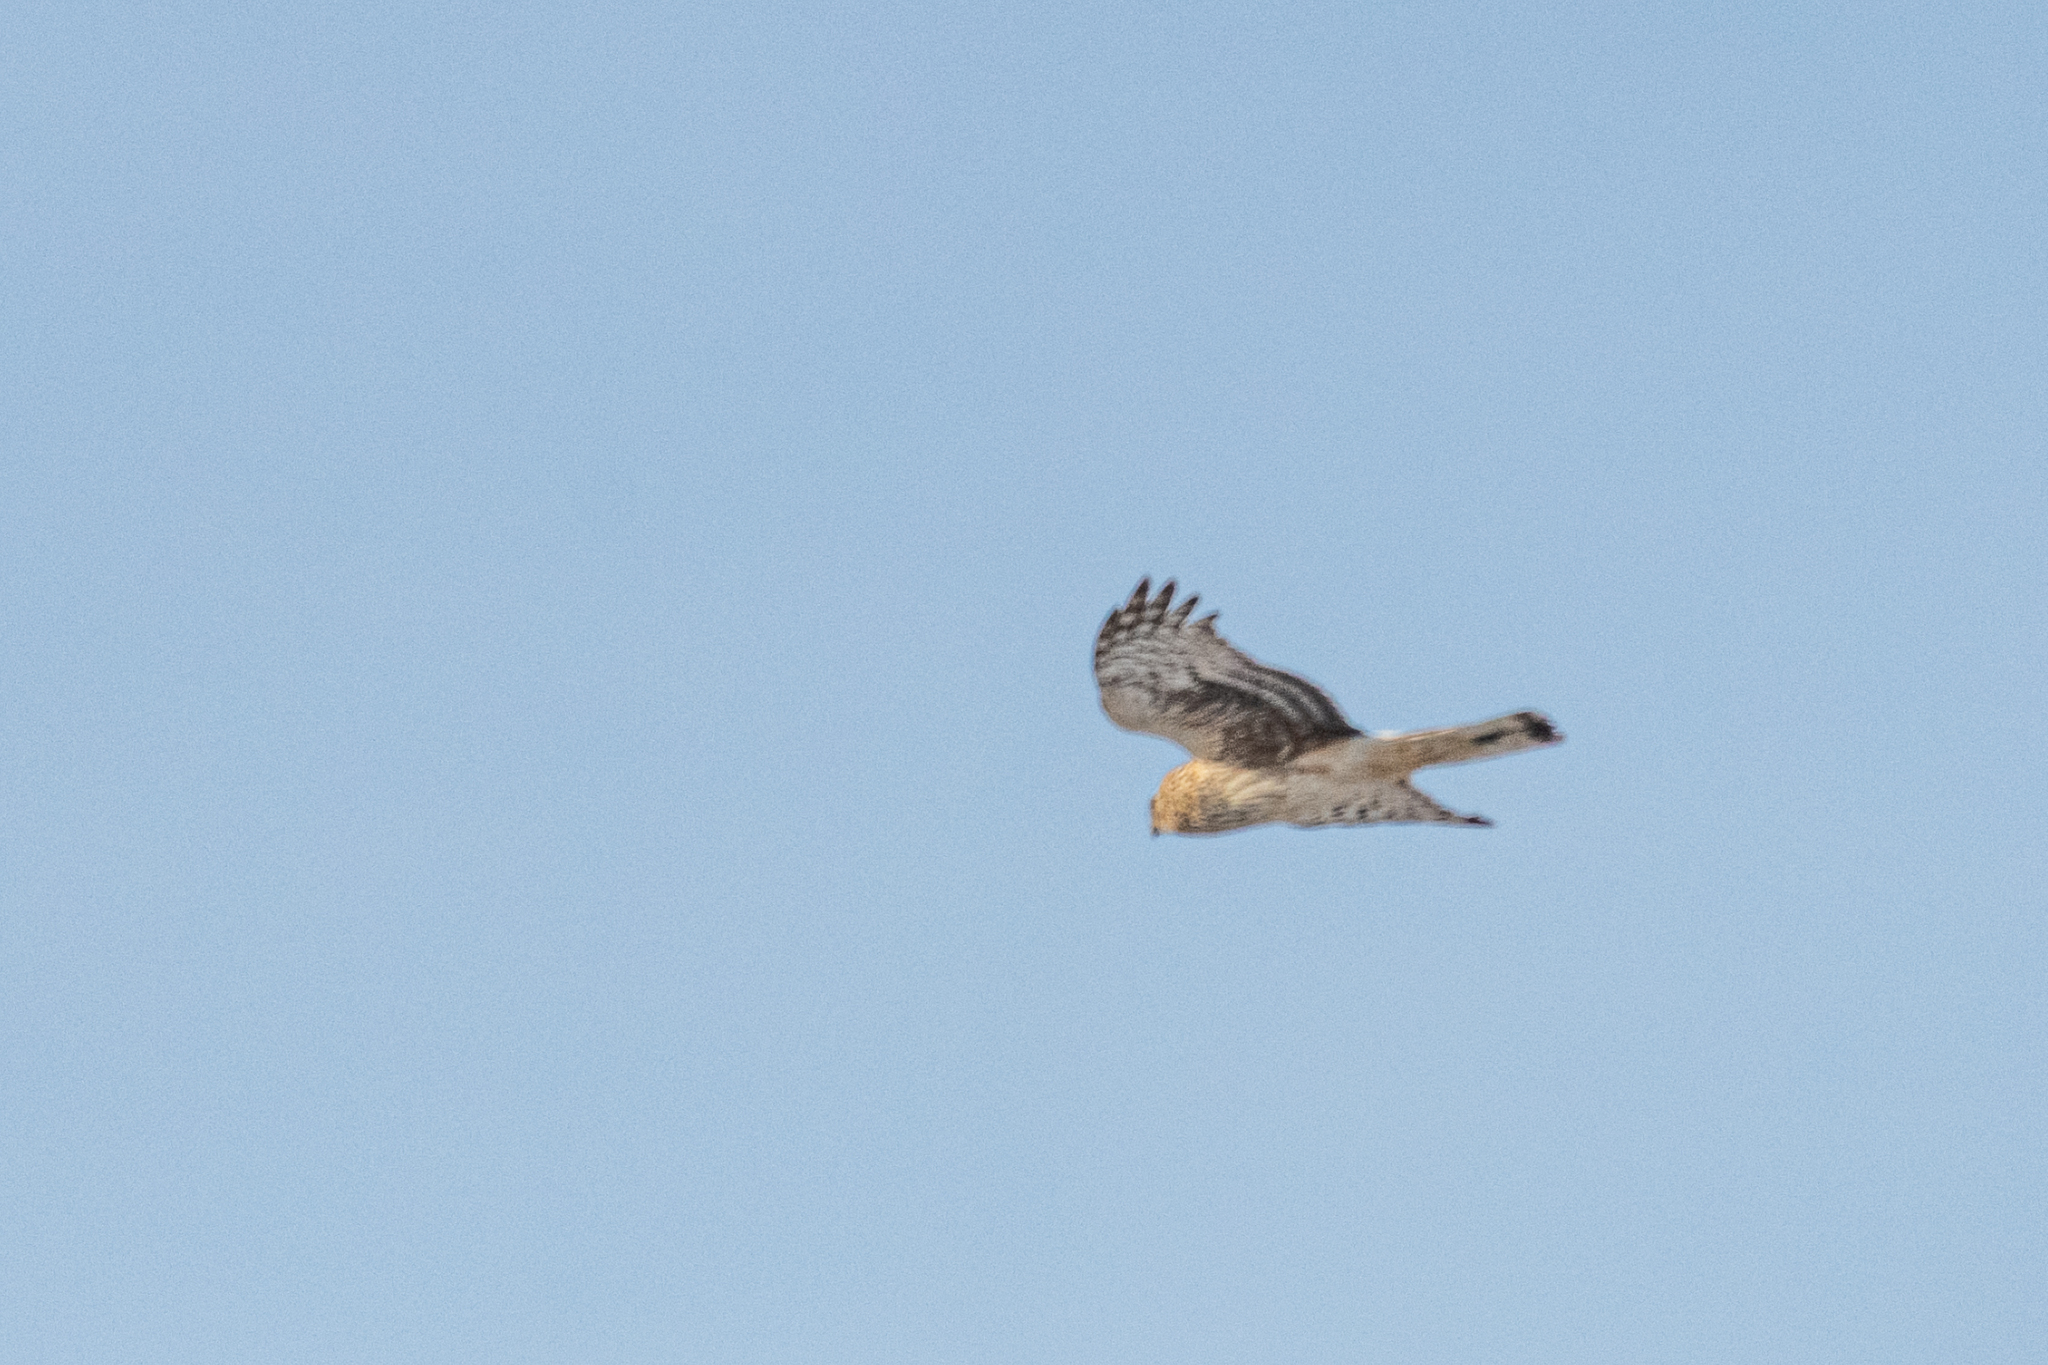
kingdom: Animalia
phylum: Chordata
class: Aves
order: Accipitriformes
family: Accipitridae
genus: Circus
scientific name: Circus cyaneus
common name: Hen harrier
